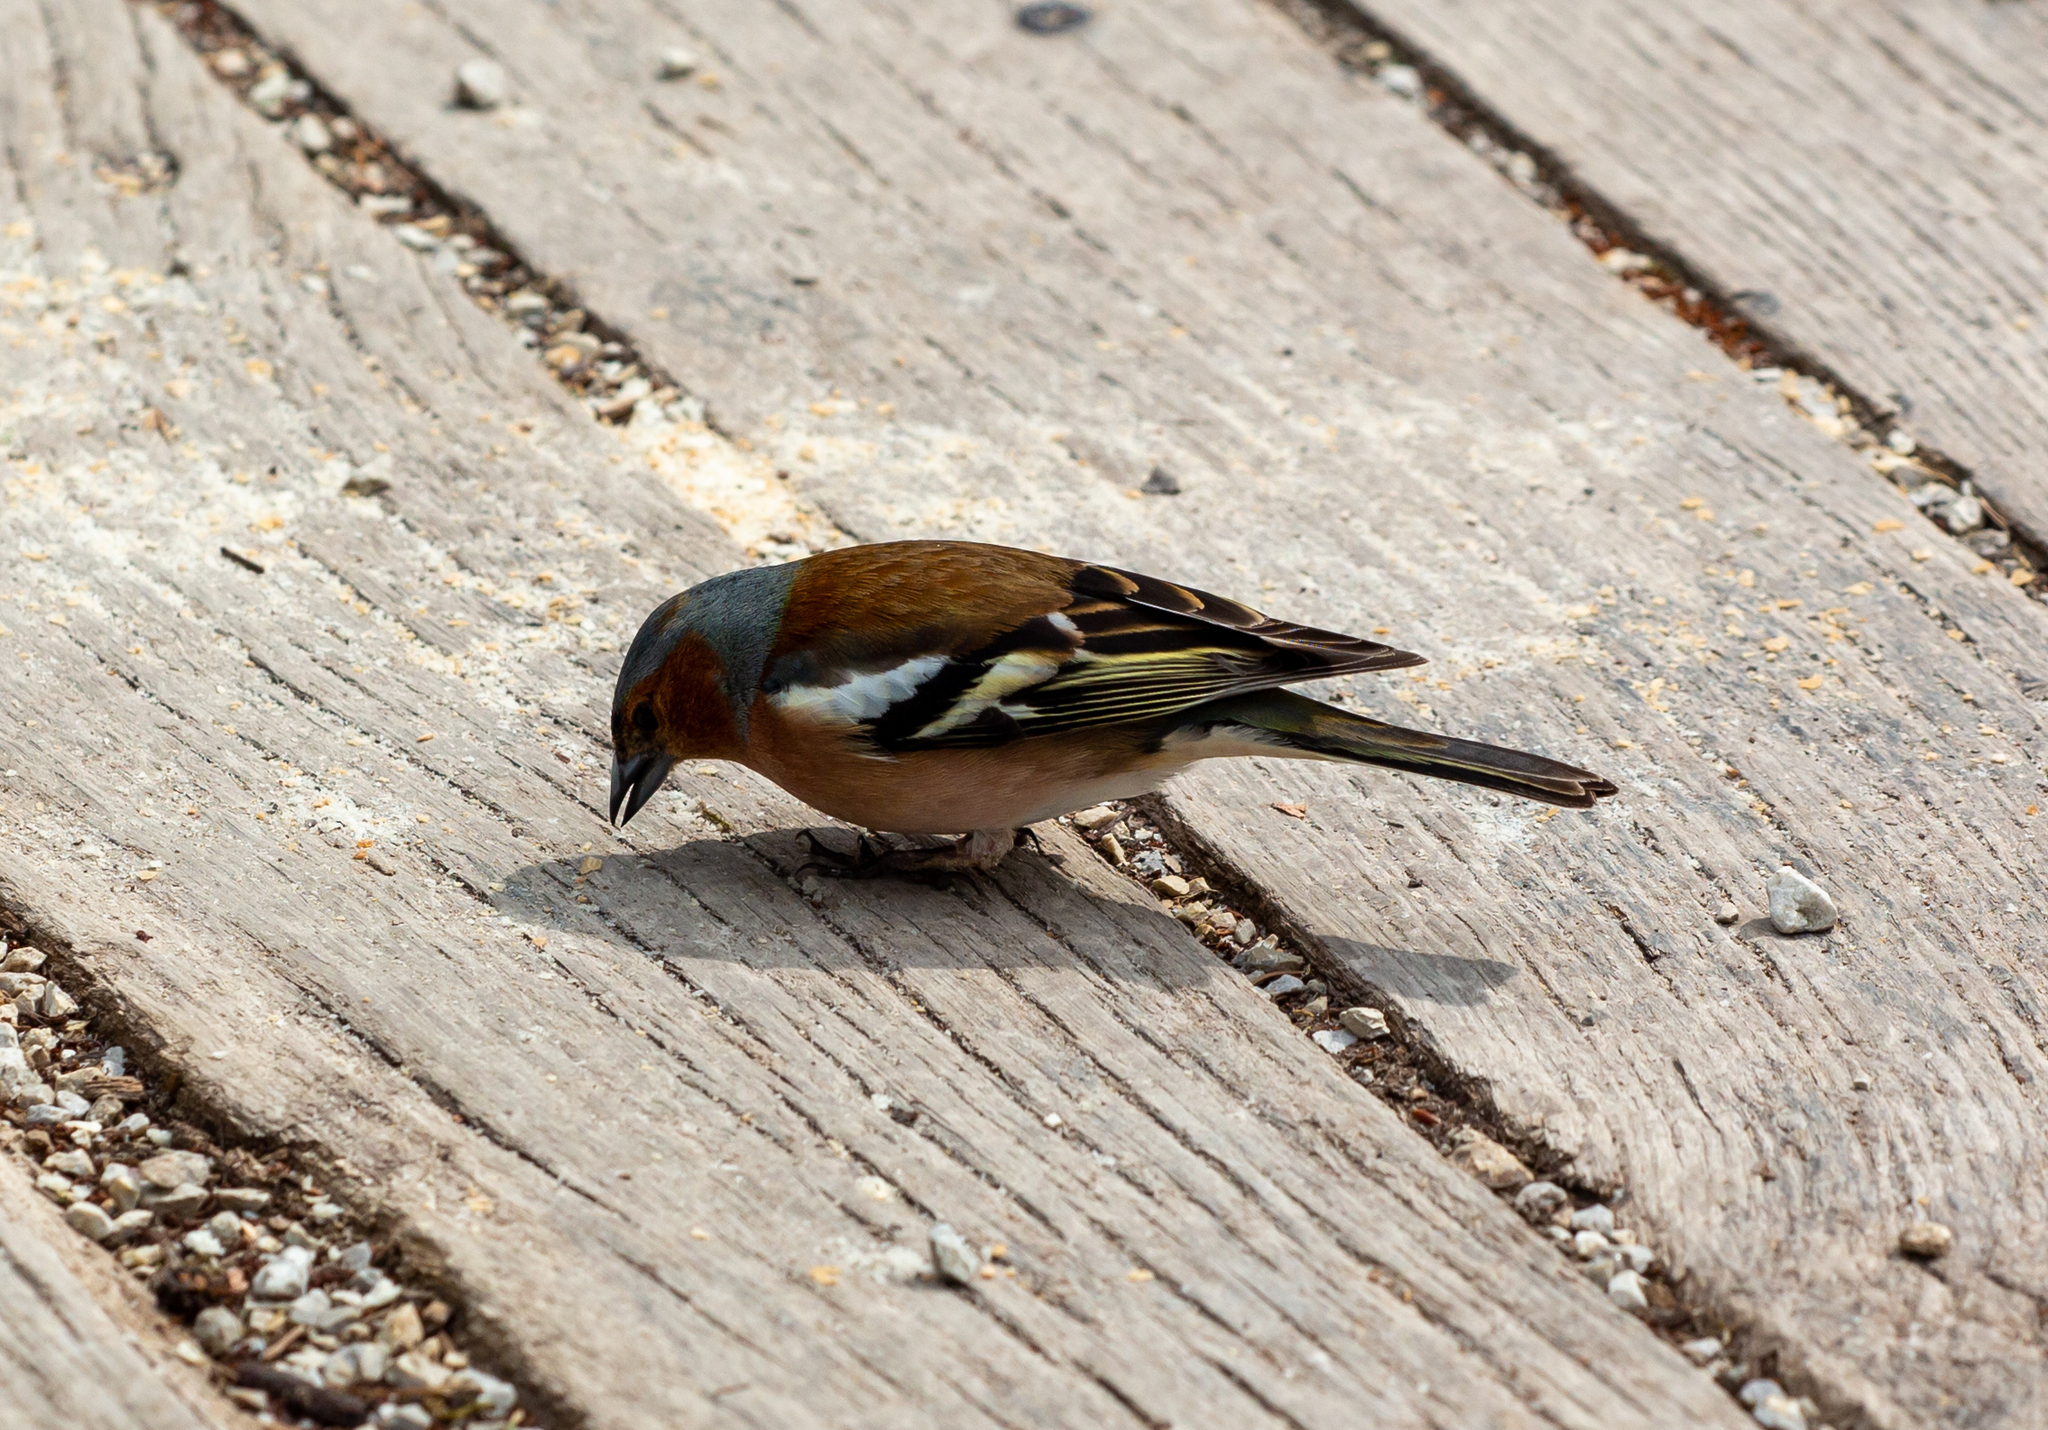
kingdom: Animalia
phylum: Chordata
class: Aves
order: Passeriformes
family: Fringillidae
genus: Fringilla
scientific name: Fringilla coelebs
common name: Common chaffinch
